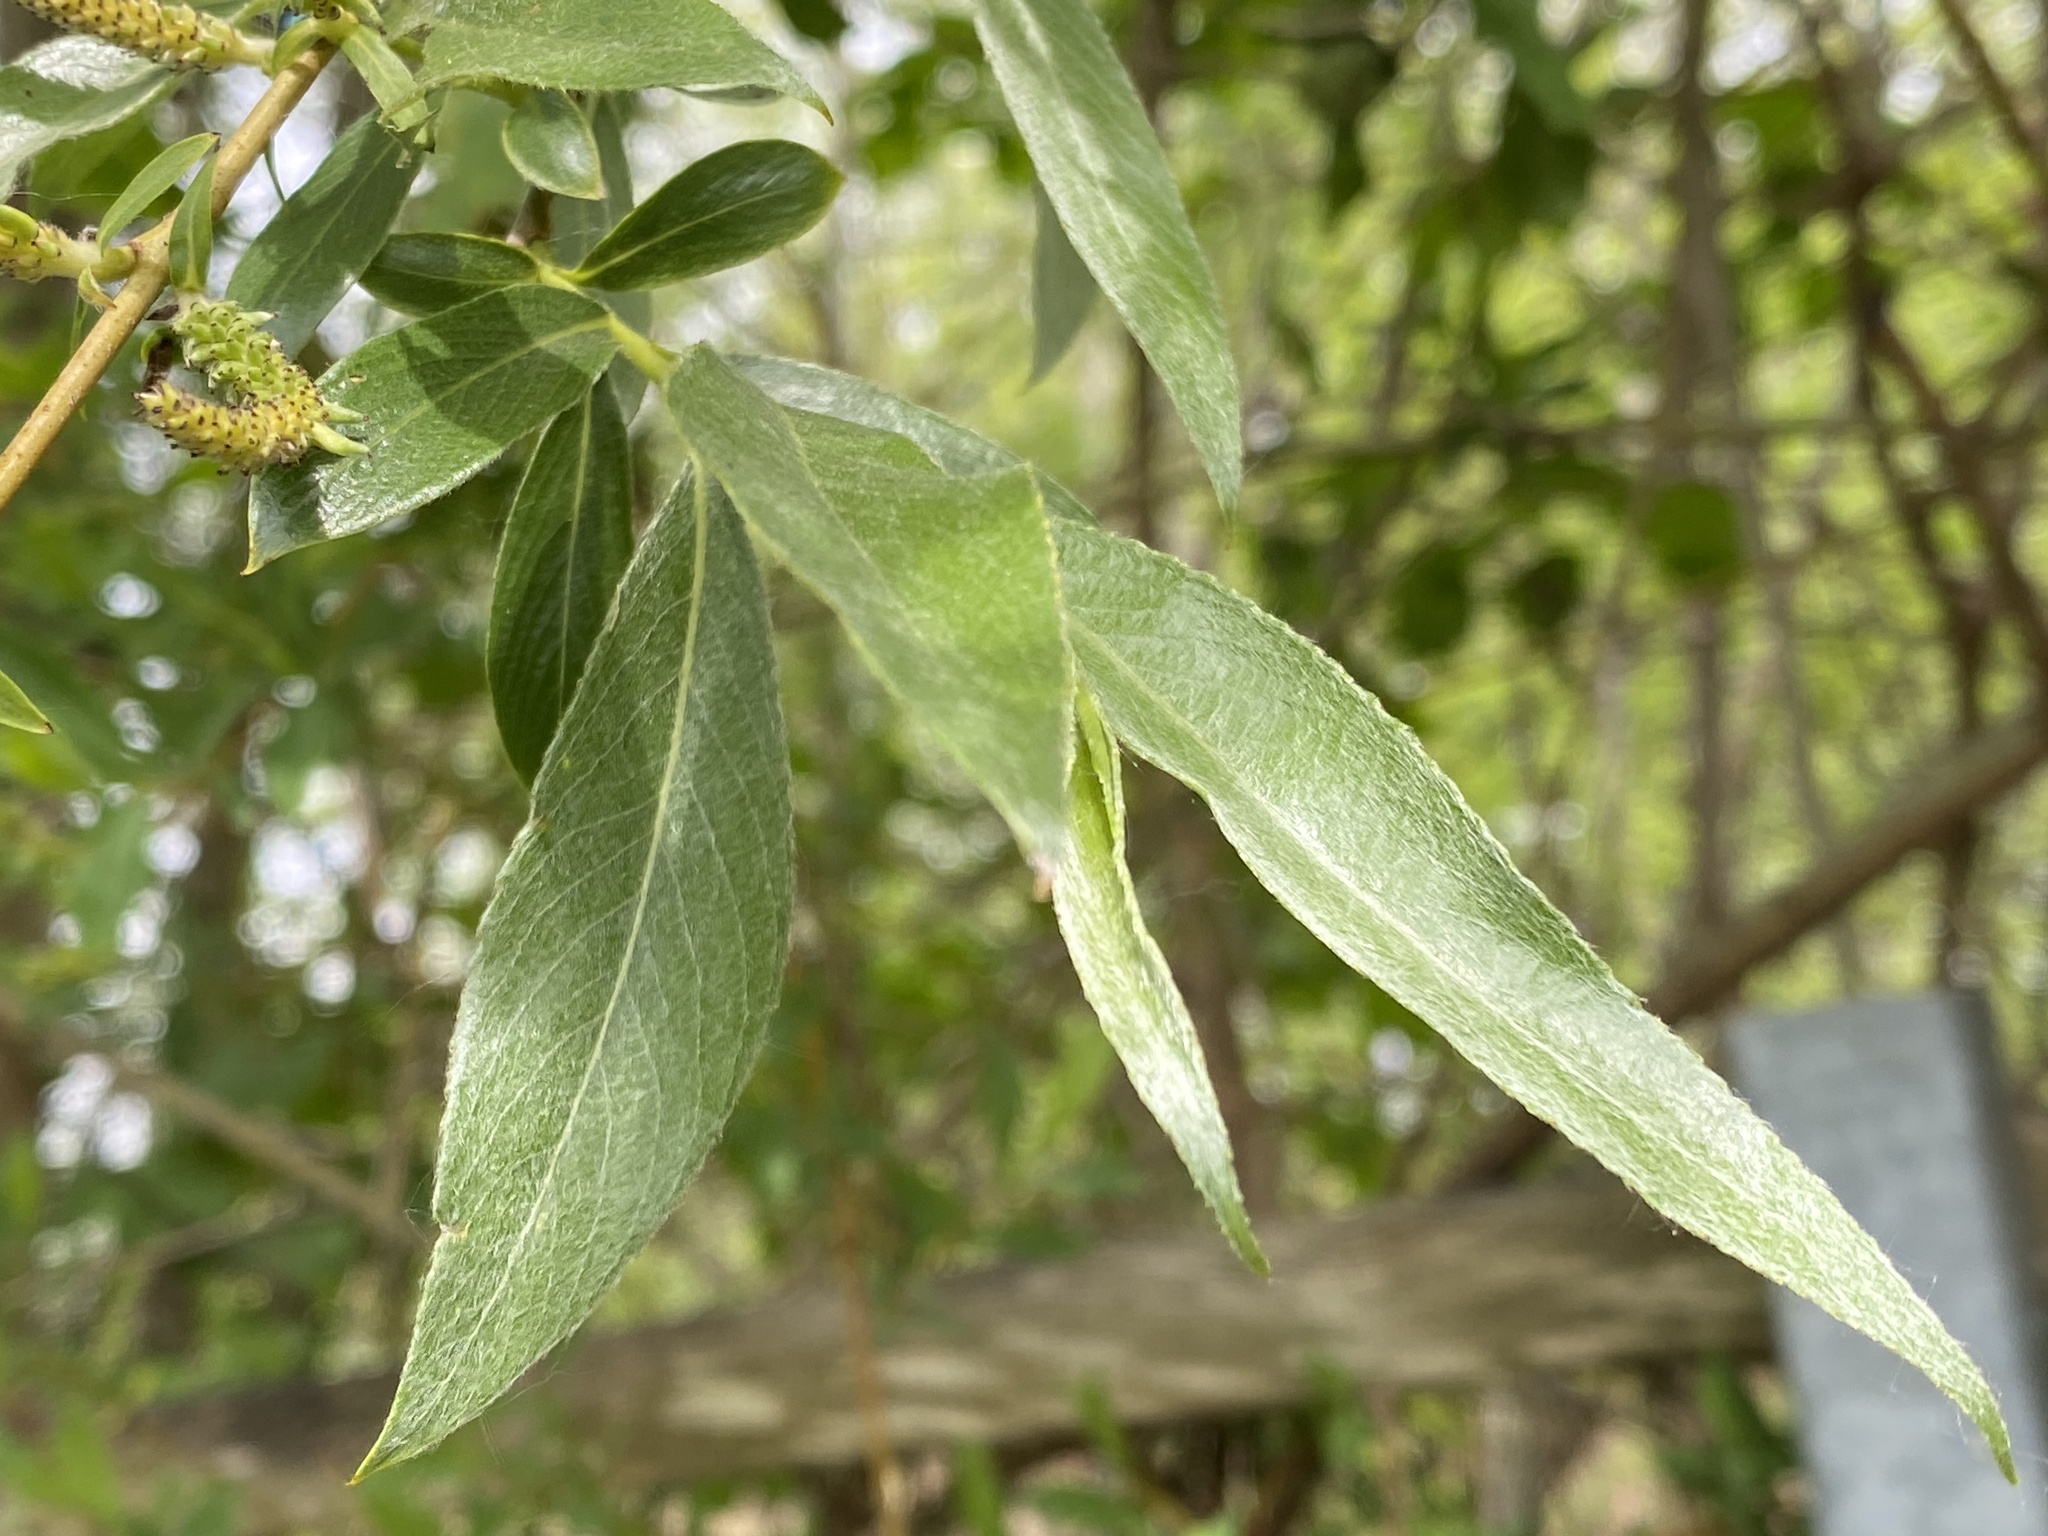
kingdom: Plantae
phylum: Tracheophyta
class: Magnoliopsida
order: Malpighiales
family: Salicaceae
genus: Salix
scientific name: Salix fragilis
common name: Crack willow
